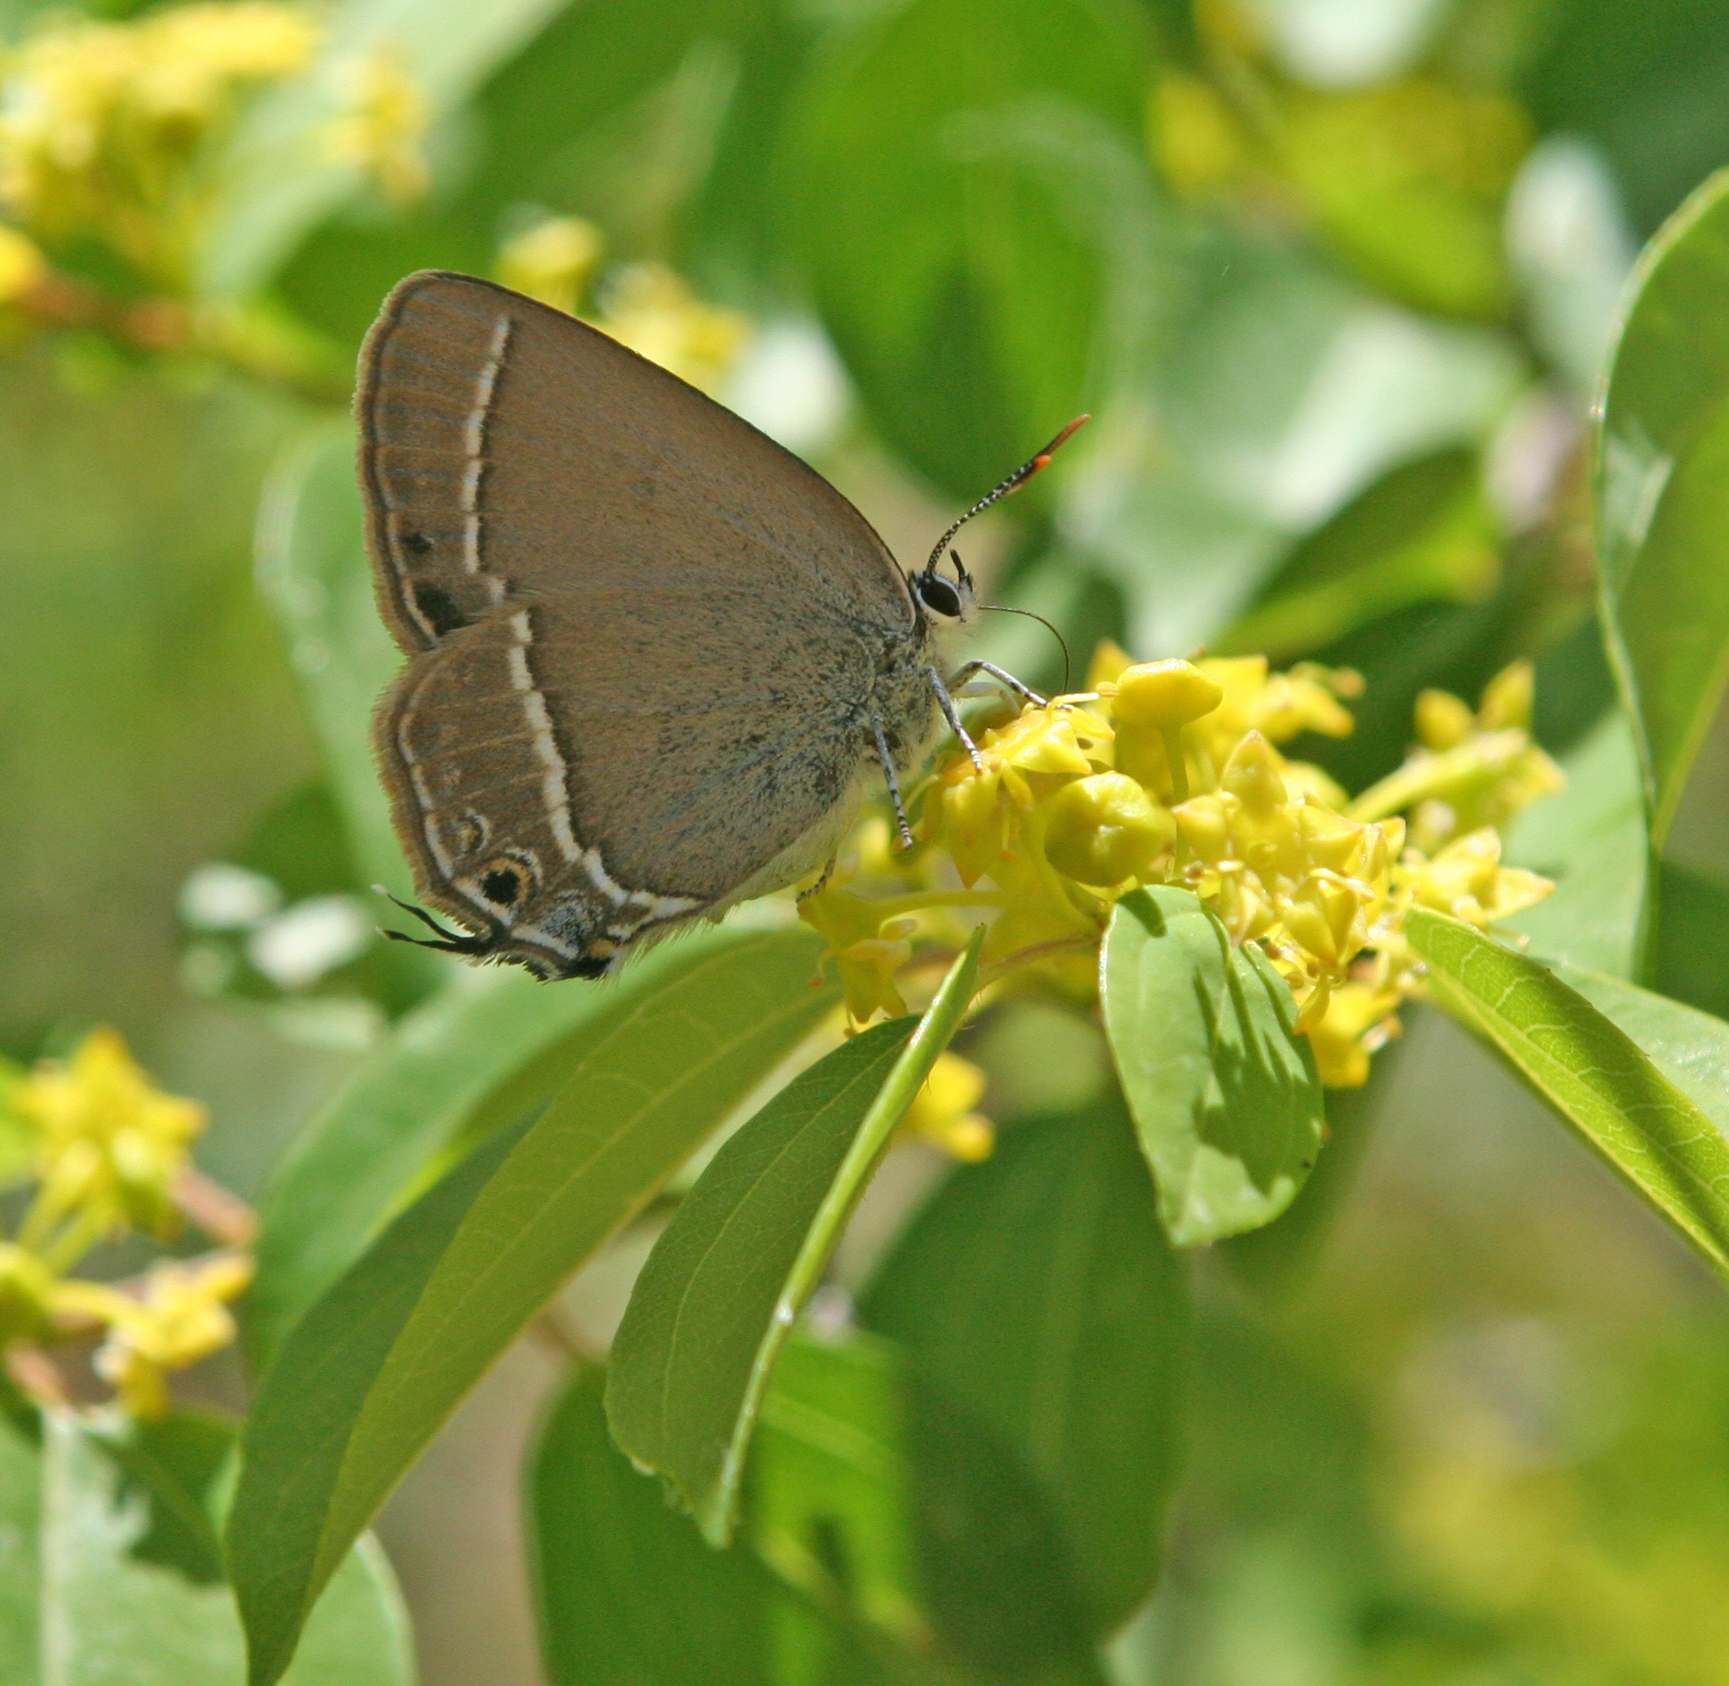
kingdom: Animalia
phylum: Arthropoda
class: Insecta
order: Lepidoptera
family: Lycaenidae
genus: Satyrium
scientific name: Satyrium abdominalis
